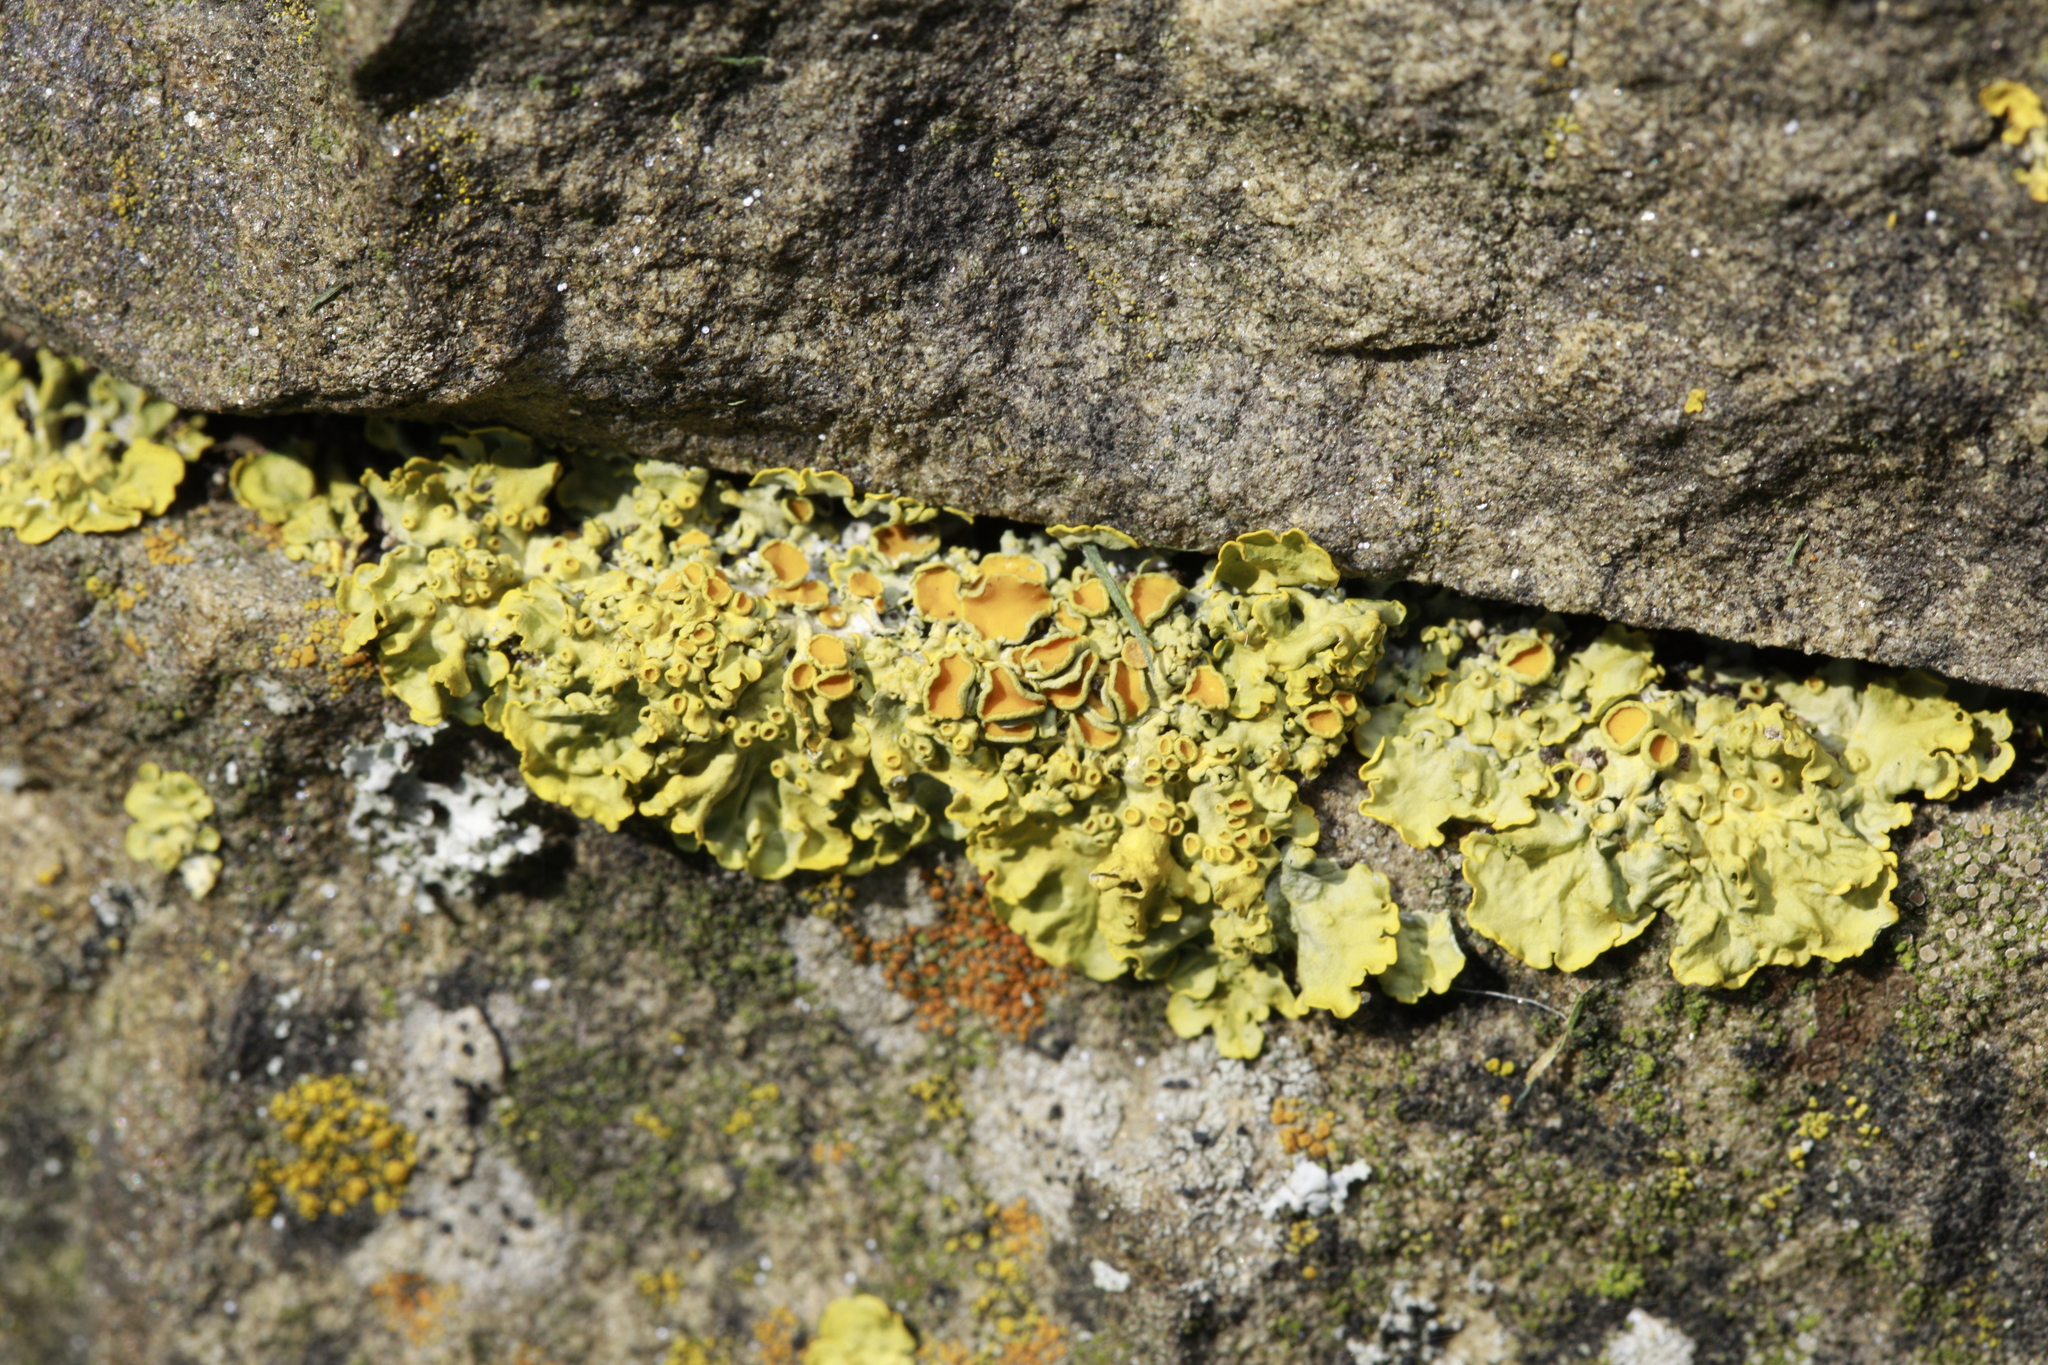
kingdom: Fungi
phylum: Ascomycota
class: Lecanoromycetes
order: Teloschistales
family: Teloschistaceae
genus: Xanthoria
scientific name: Xanthoria parietina
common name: Common orange lichen
